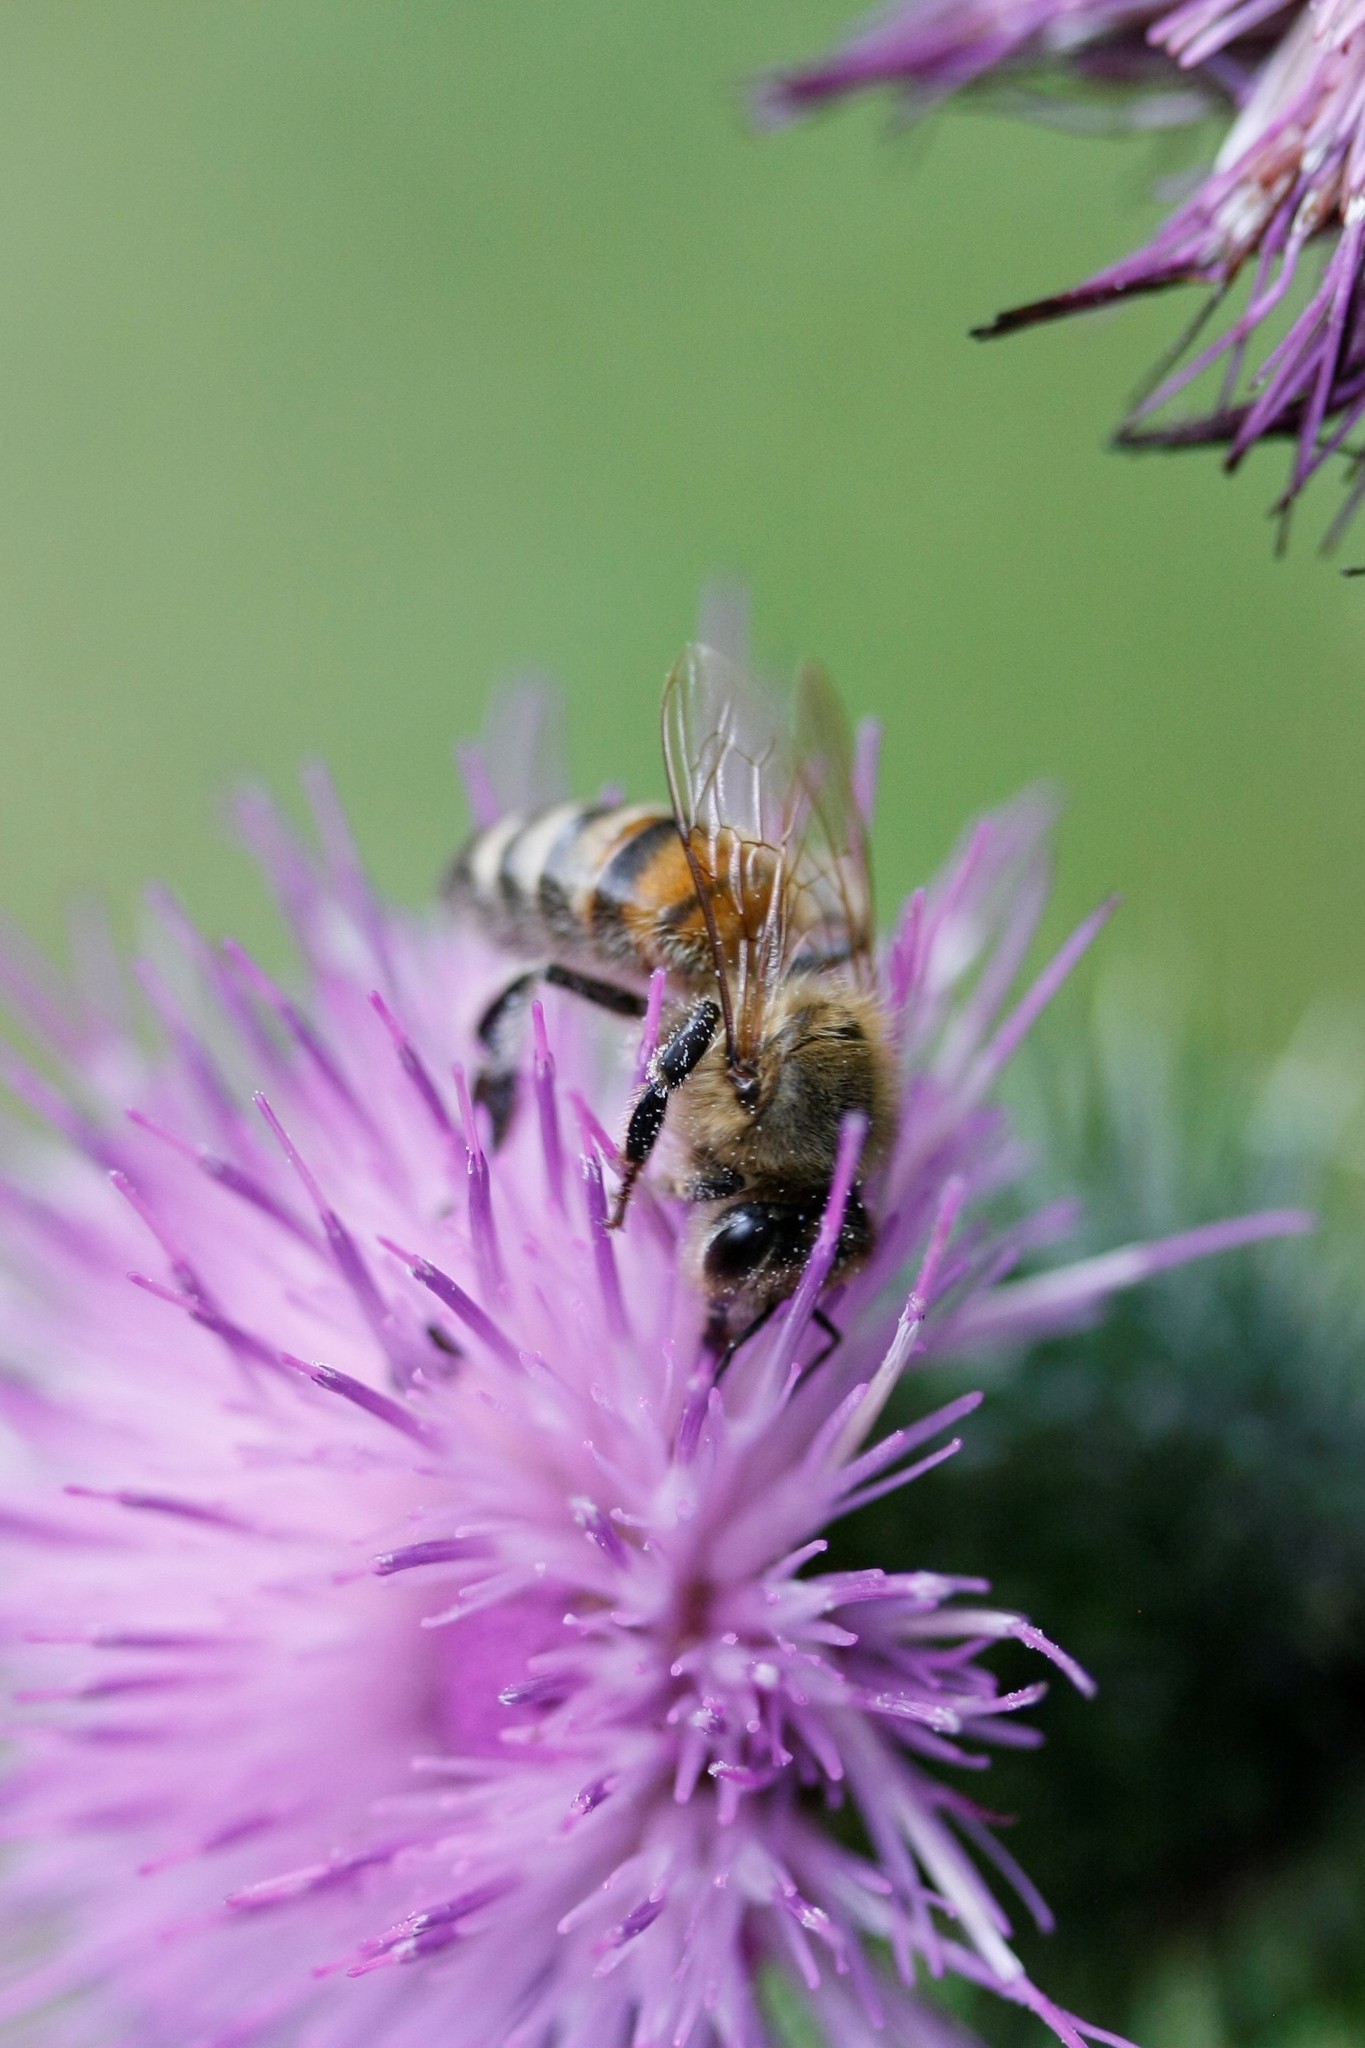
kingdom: Animalia
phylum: Arthropoda
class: Insecta
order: Hymenoptera
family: Apidae
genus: Apis
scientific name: Apis mellifera
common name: Honey bee
